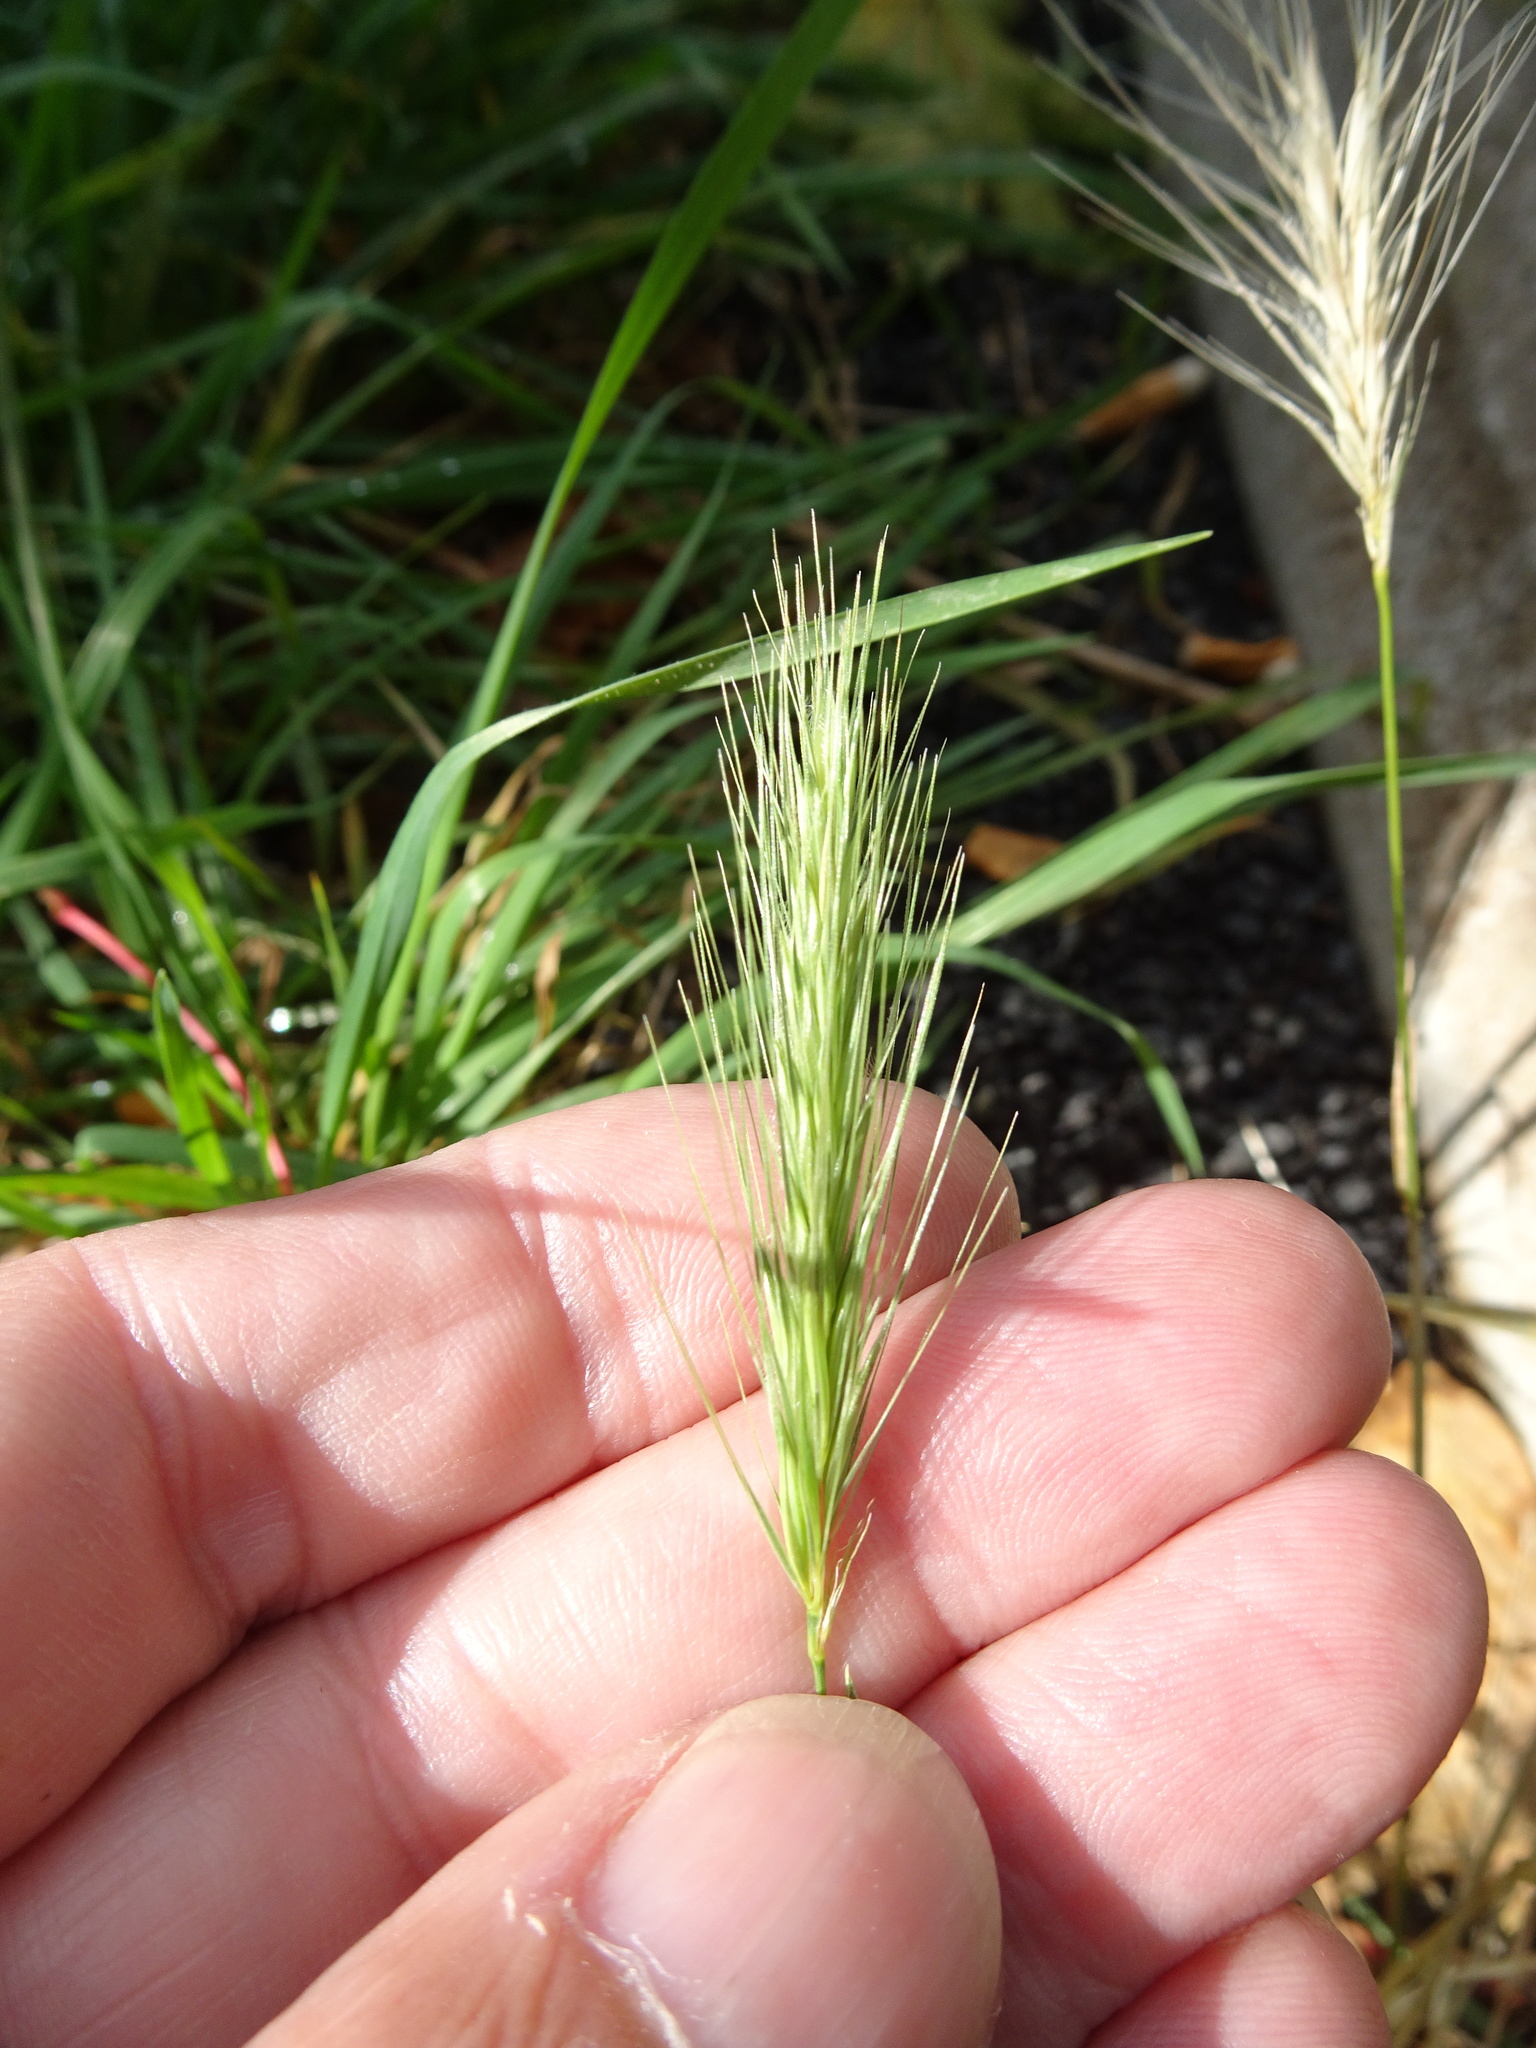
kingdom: Plantae
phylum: Tracheophyta
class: Liliopsida
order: Poales
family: Poaceae
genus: Hordeum
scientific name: Hordeum murinum
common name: Wall barley
